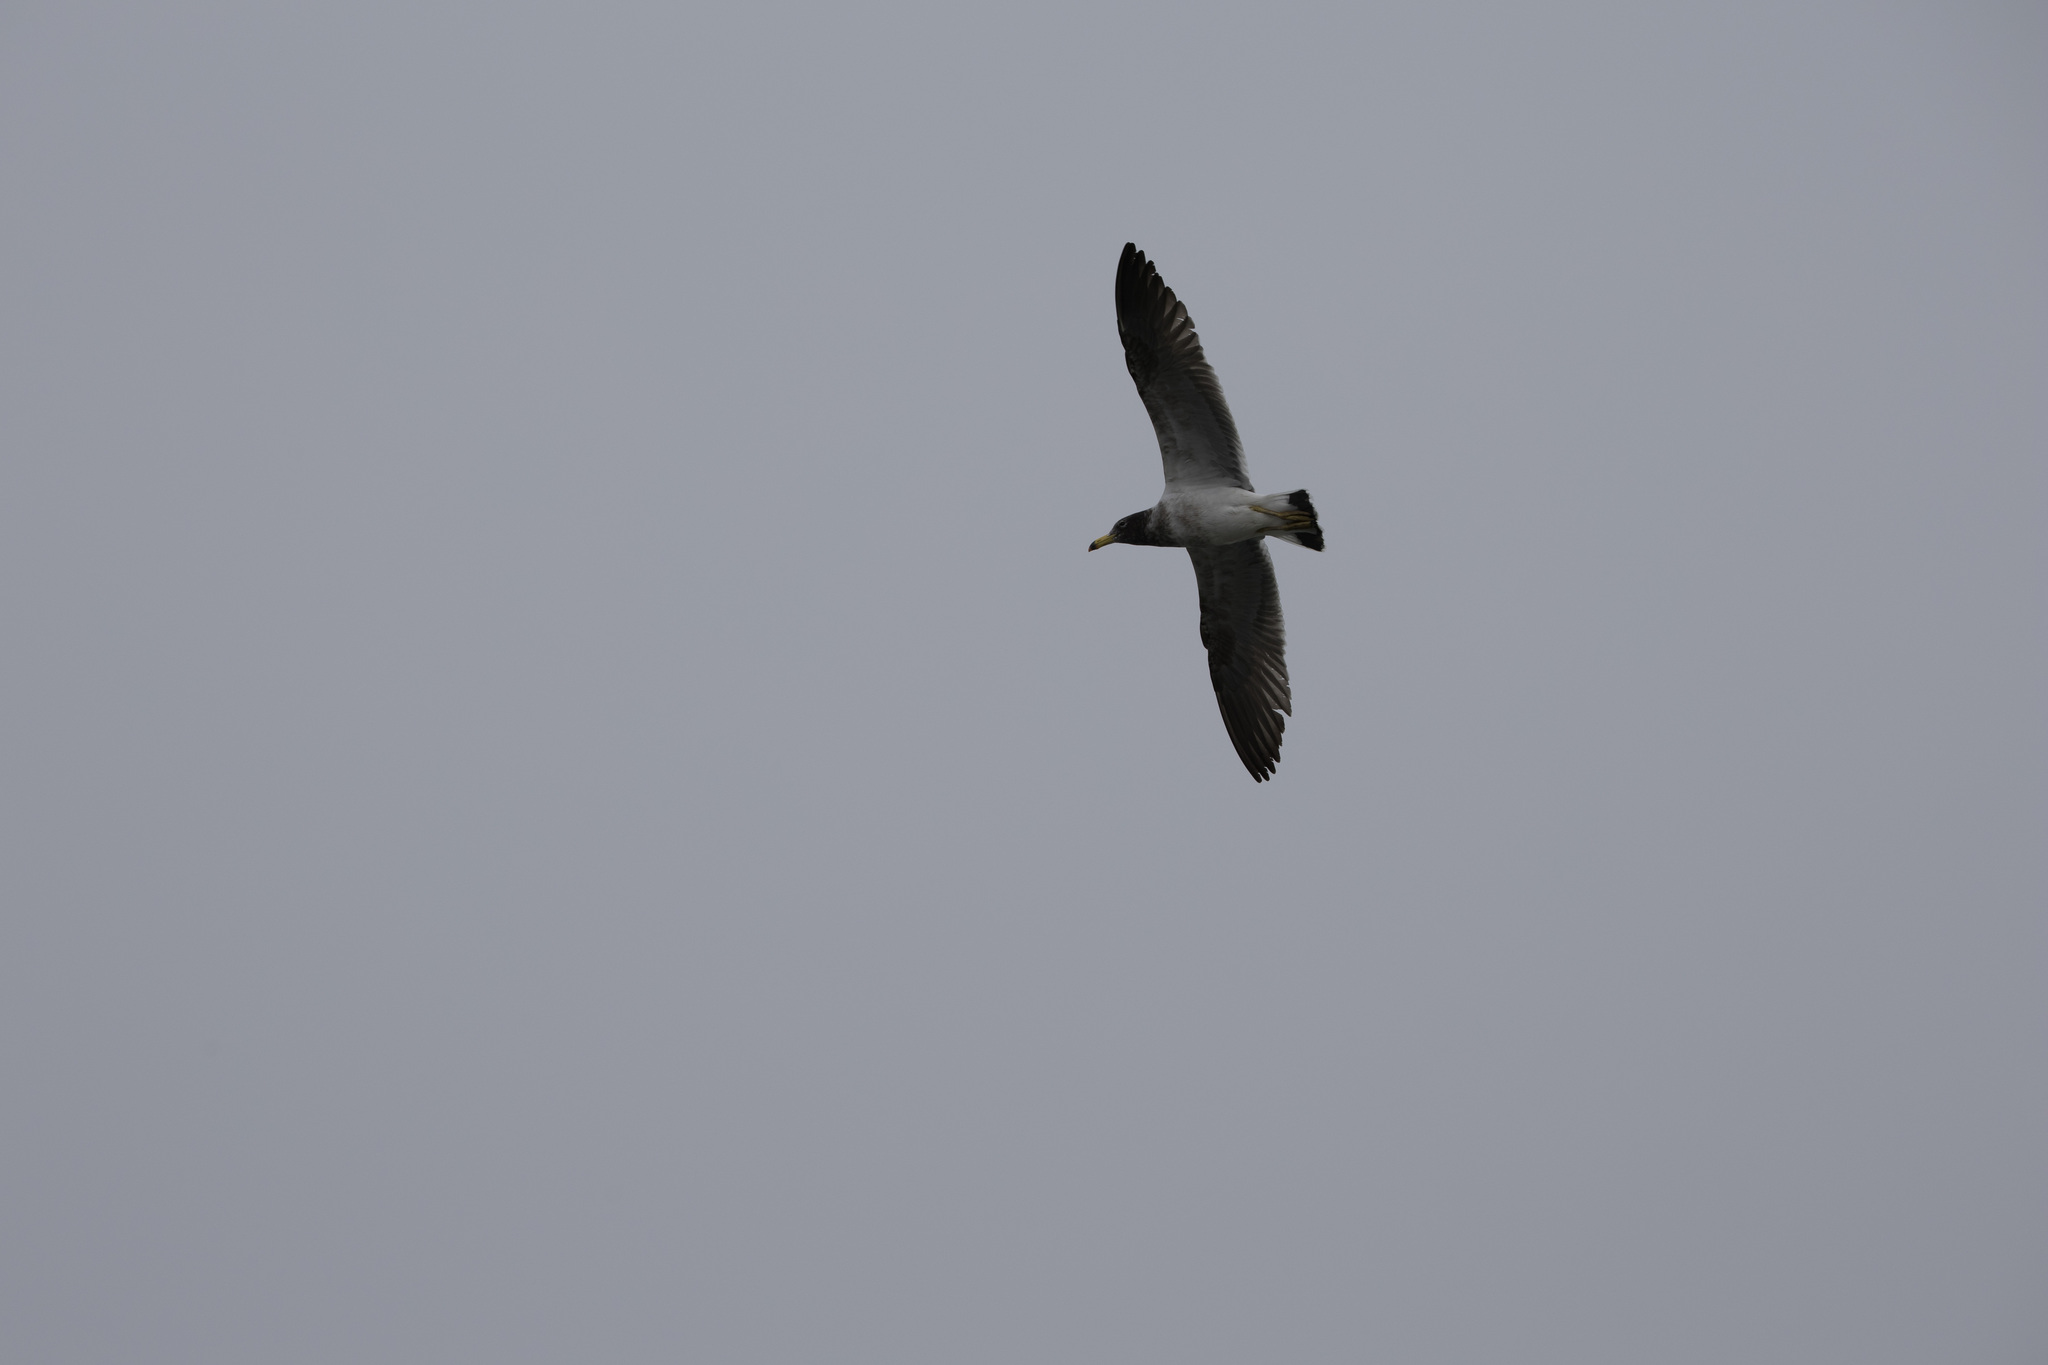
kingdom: Animalia
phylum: Chordata
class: Aves
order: Charadriiformes
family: Laridae
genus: Larus
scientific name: Larus belcheri
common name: Belcher's gull
